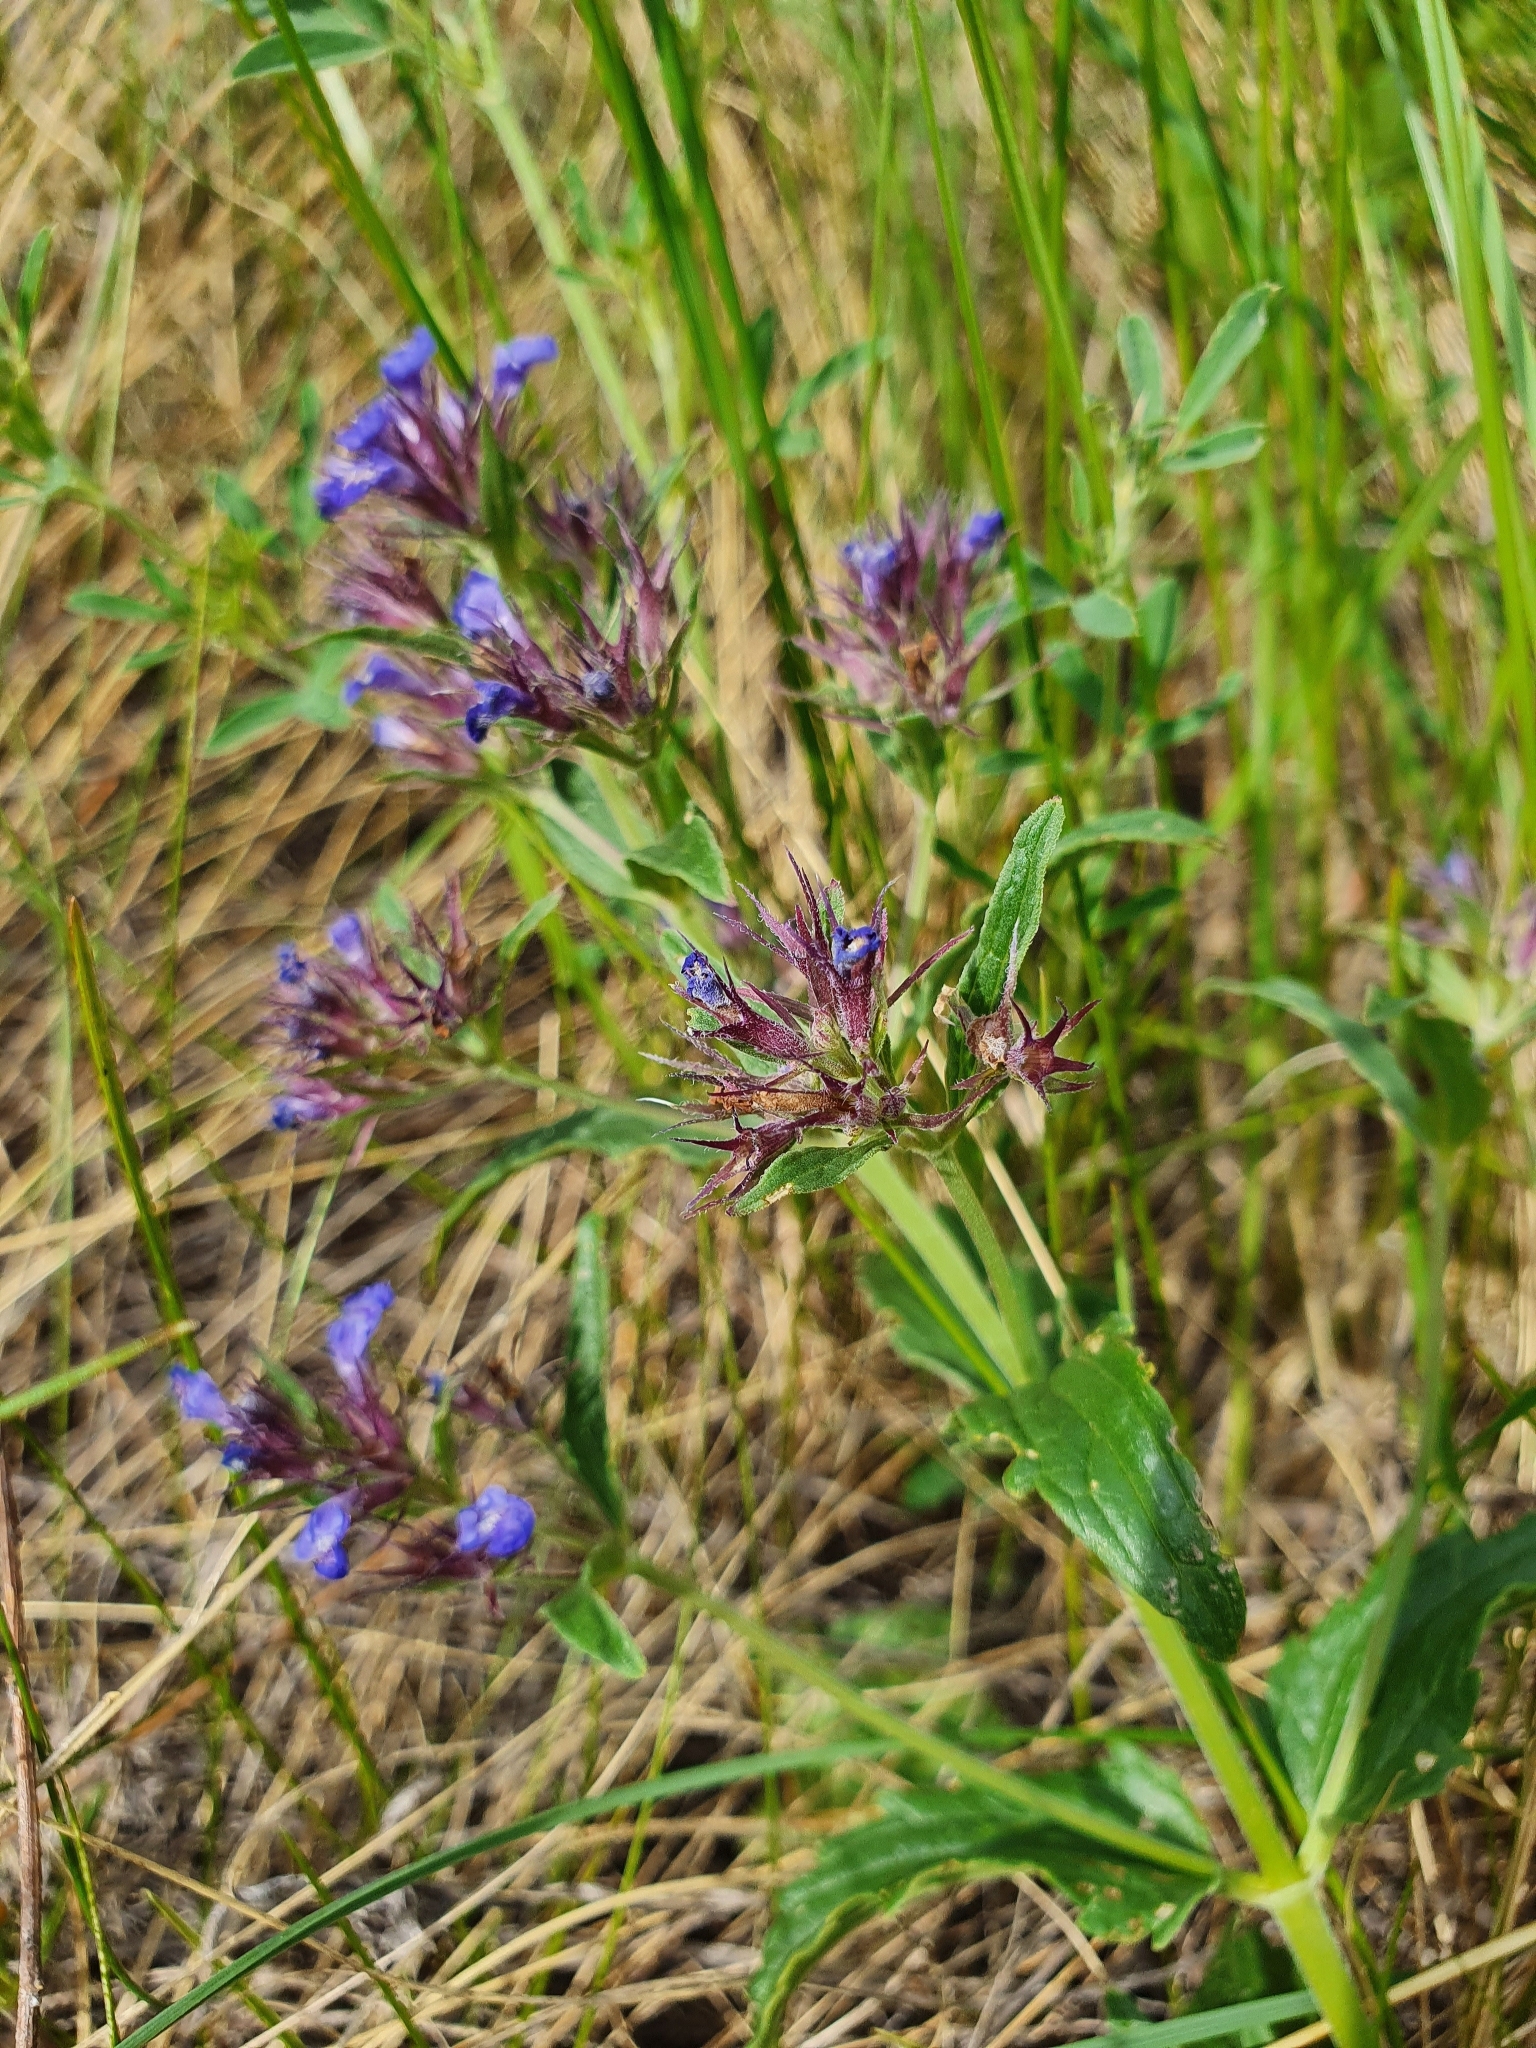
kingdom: Plantae
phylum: Tracheophyta
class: Magnoliopsida
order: Lamiales
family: Lamiaceae
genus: Nepeta
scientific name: Nepeta ucranica
